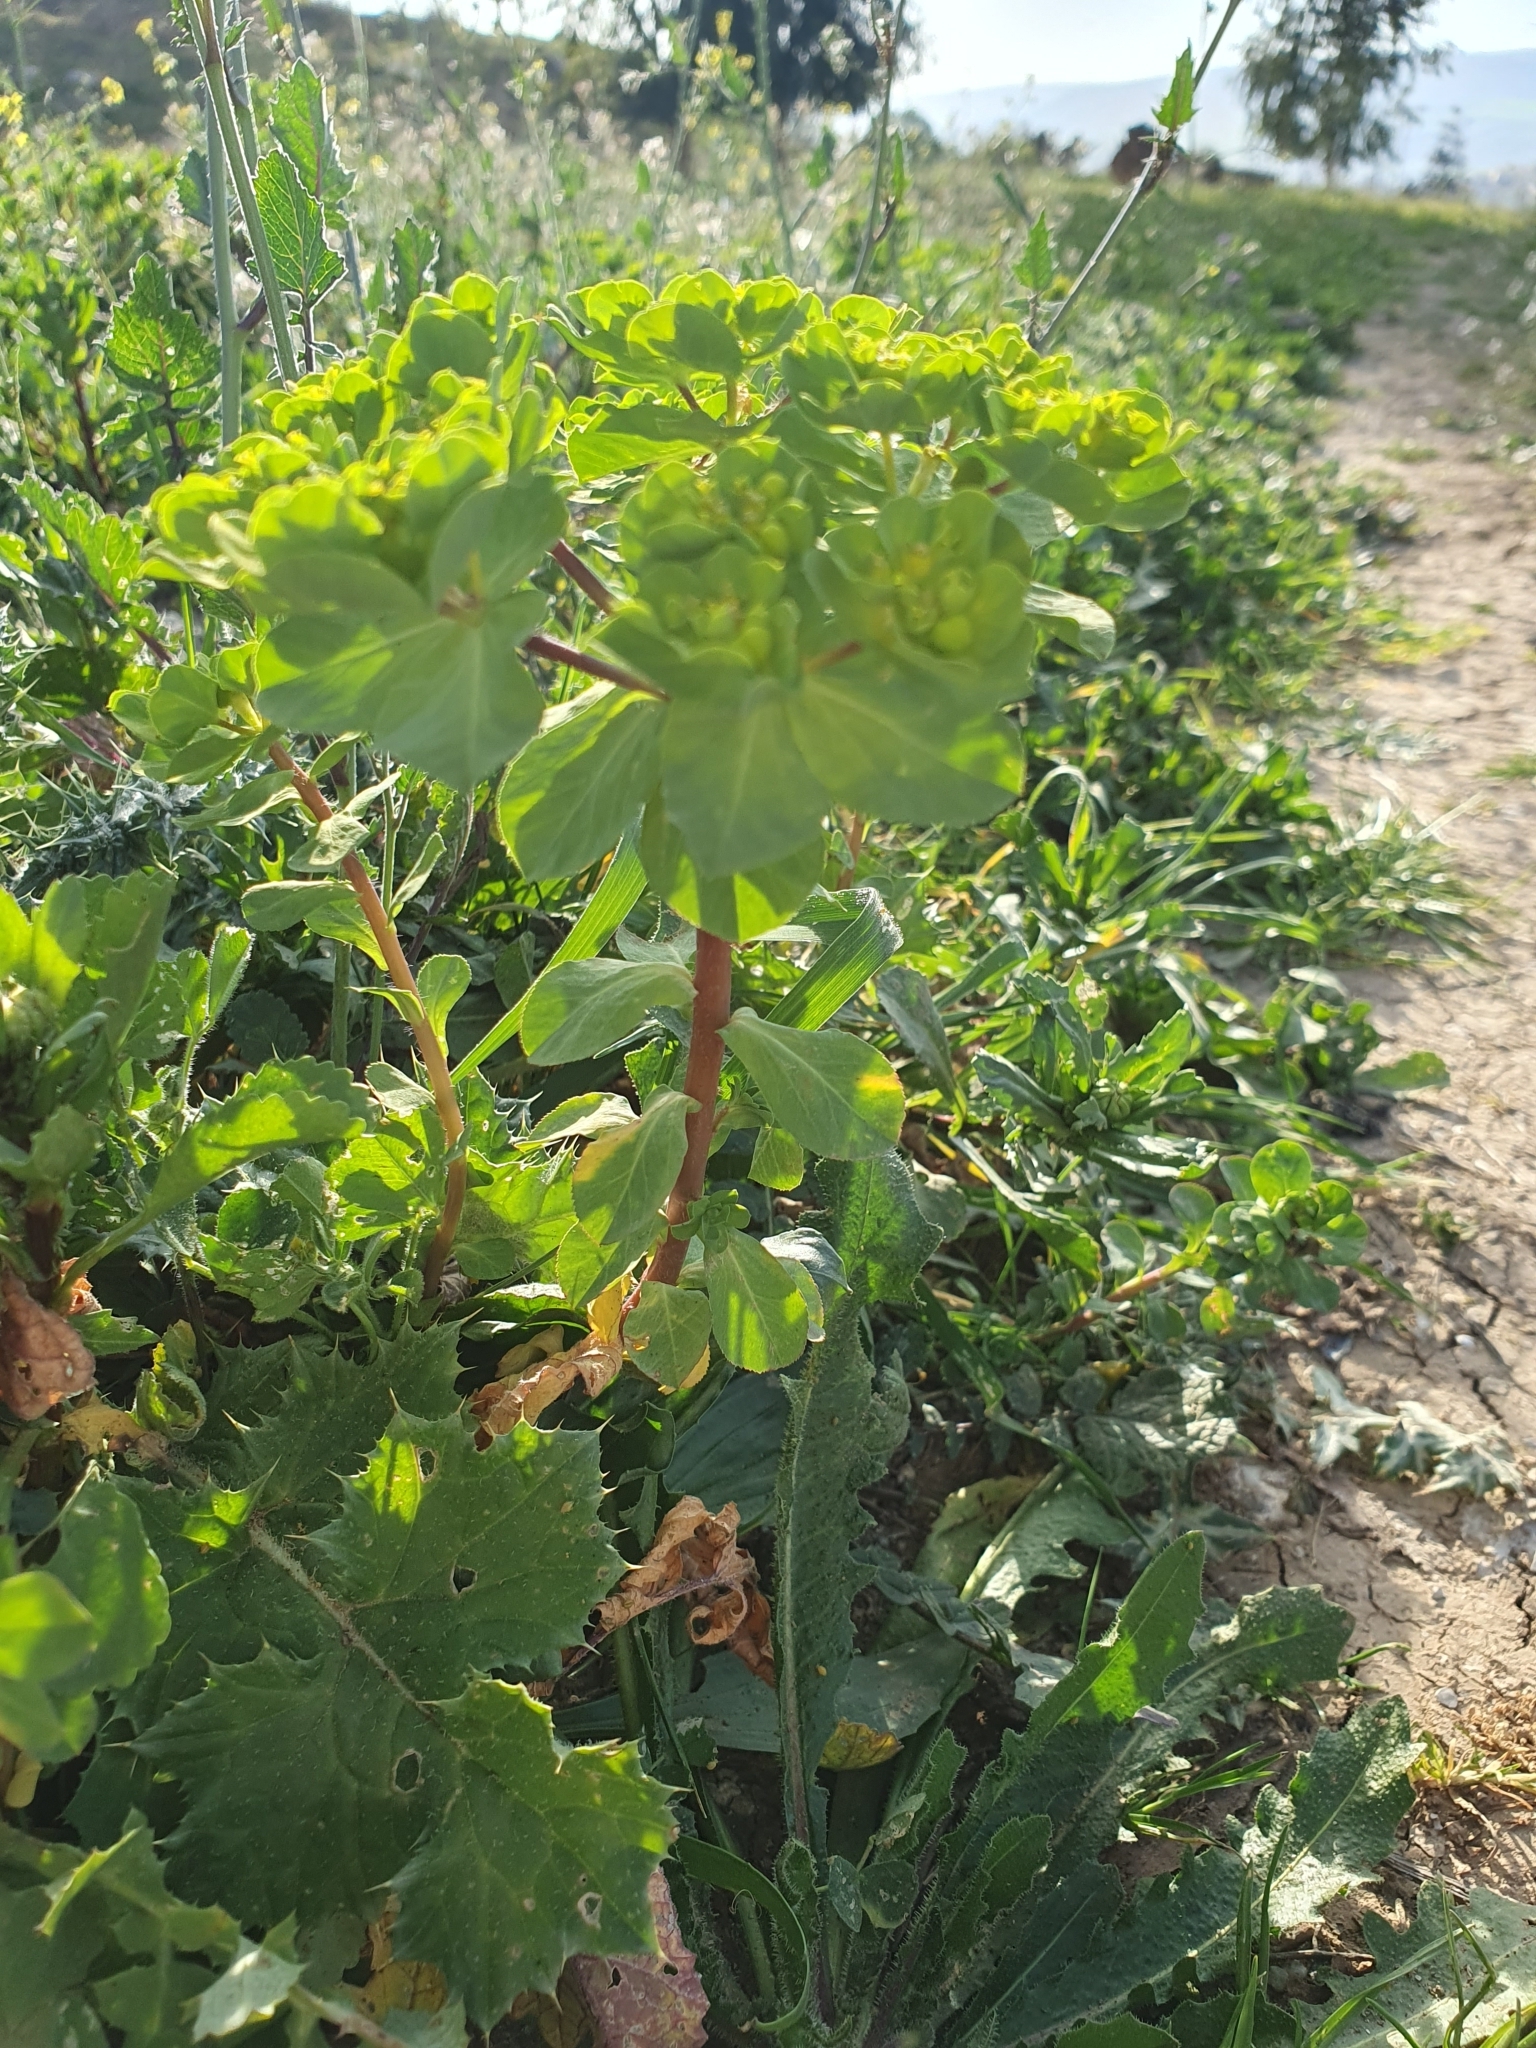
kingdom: Plantae
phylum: Tracheophyta
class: Magnoliopsida
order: Malpighiales
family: Euphorbiaceae
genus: Euphorbia
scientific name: Euphorbia helioscopia
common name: Sun spurge
